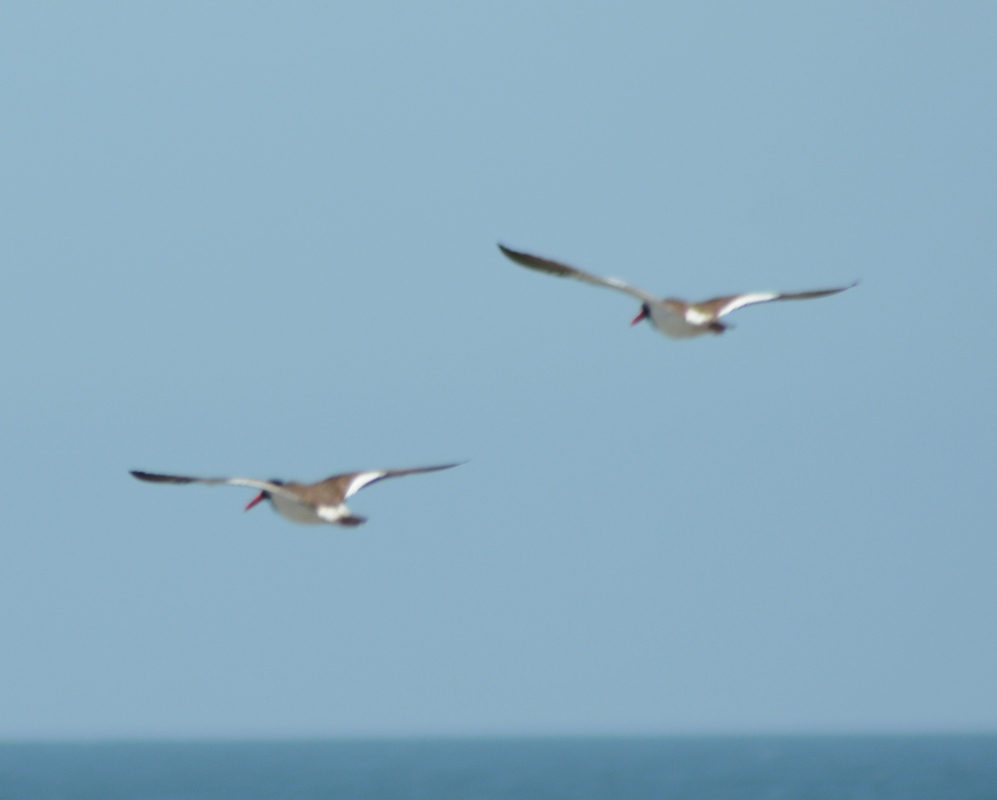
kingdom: Animalia
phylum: Chordata
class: Aves
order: Charadriiformes
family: Haematopodidae
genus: Haematopus
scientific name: Haematopus palliatus
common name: American oystercatcher
